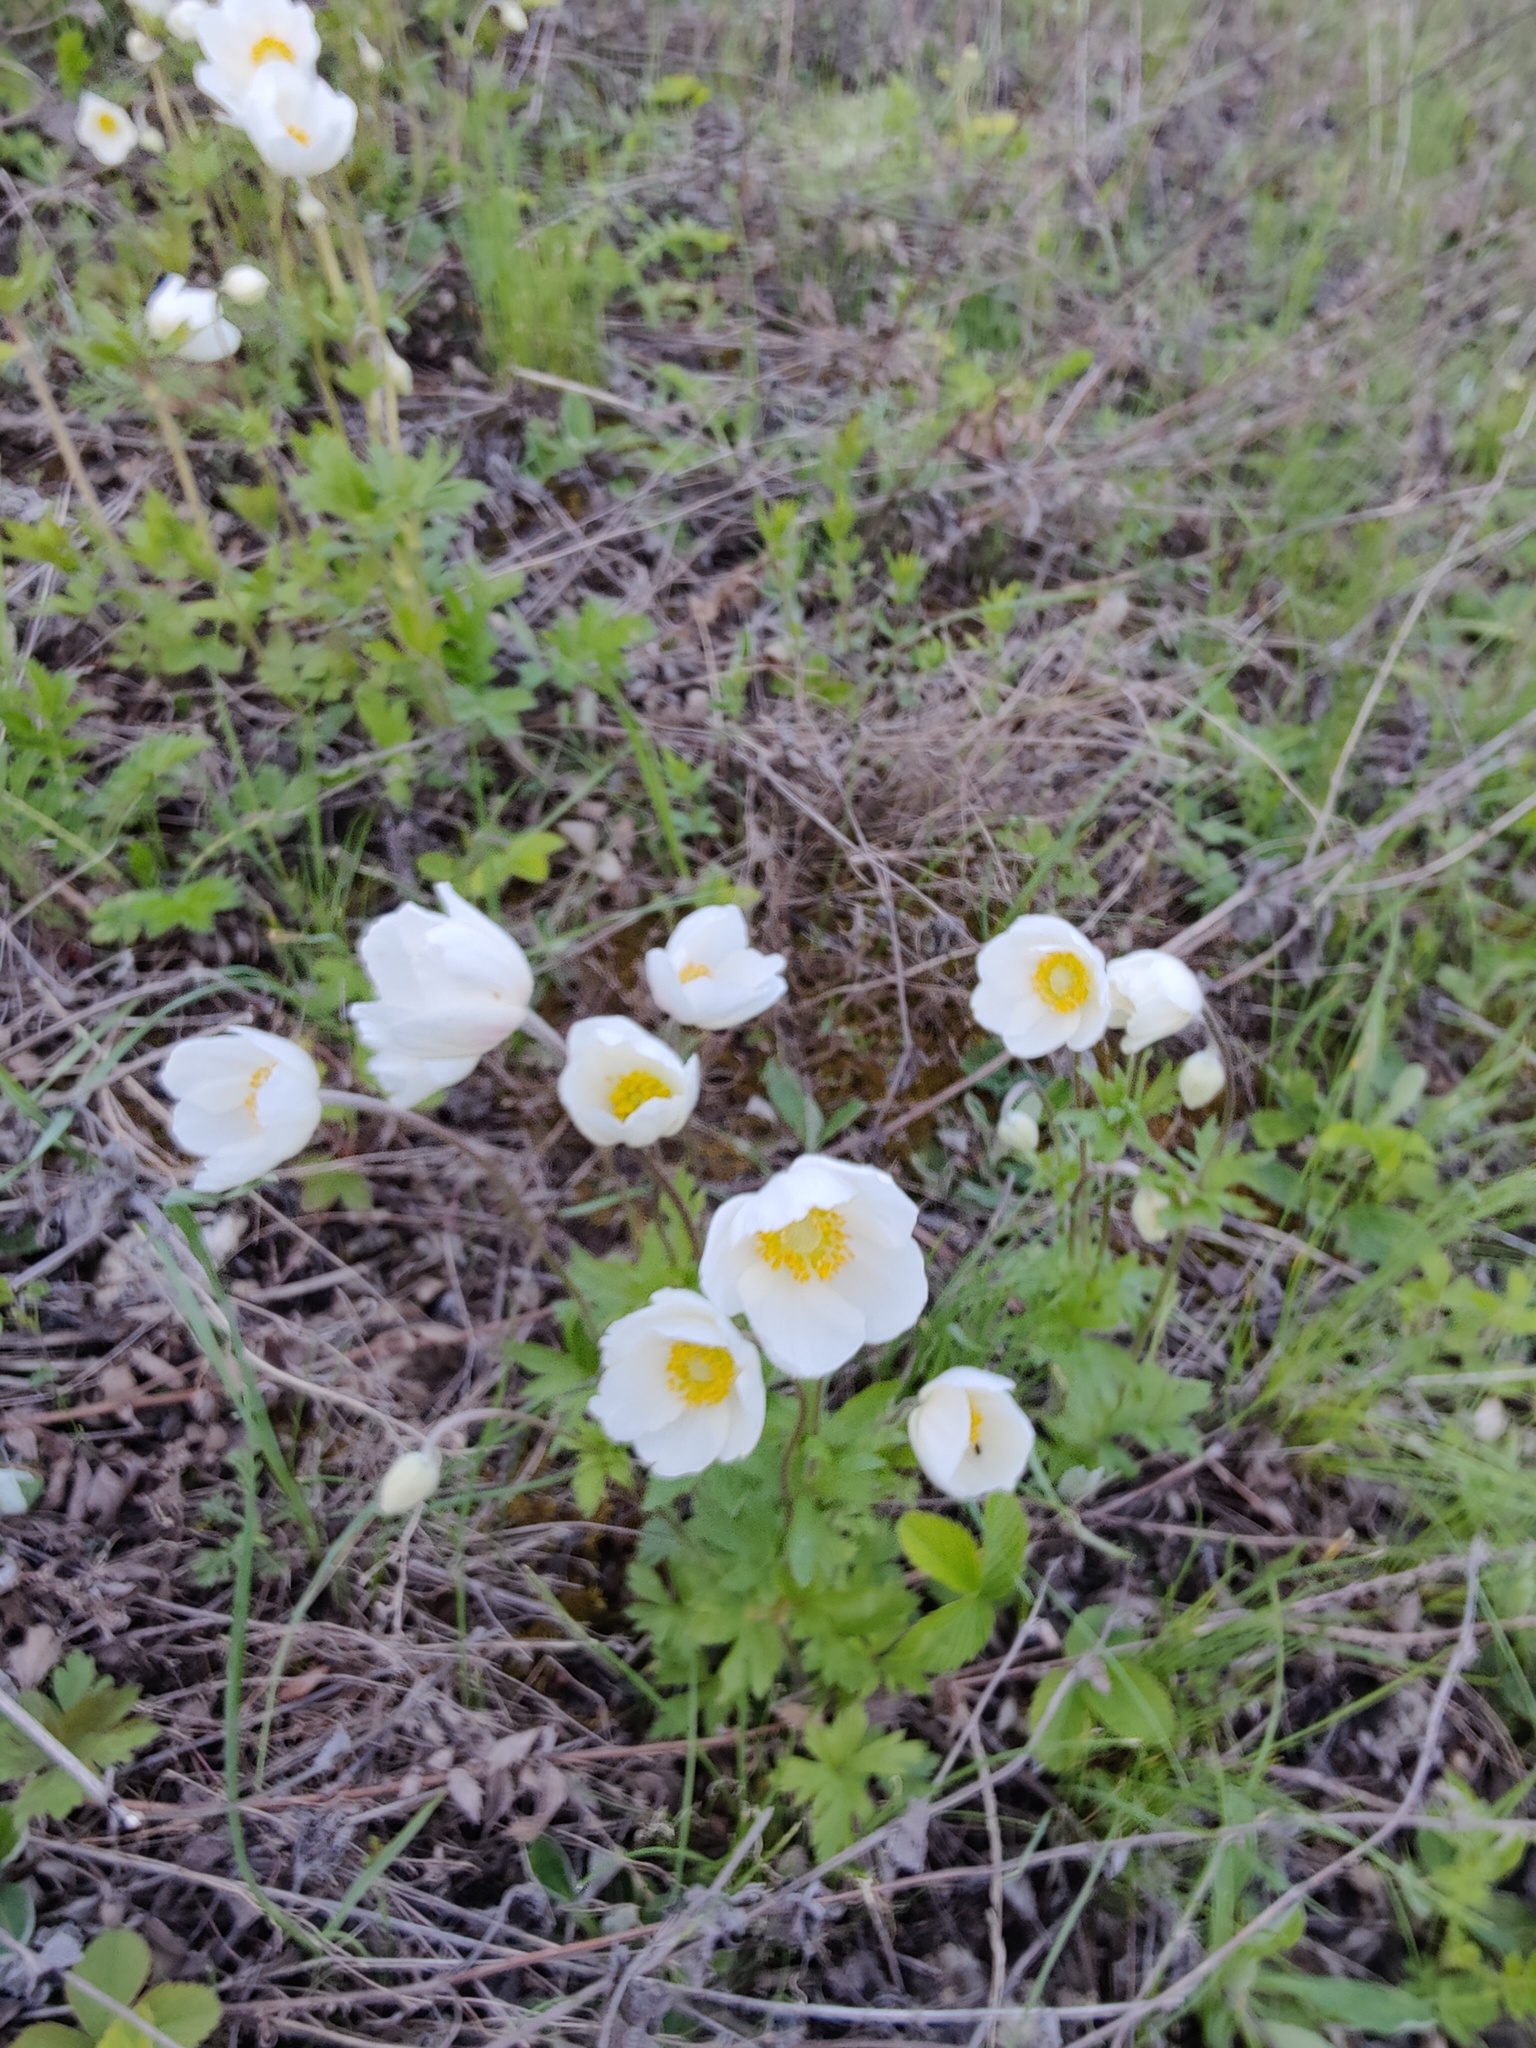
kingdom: Plantae
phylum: Tracheophyta
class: Magnoliopsida
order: Ranunculales
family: Ranunculaceae
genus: Anemone
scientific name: Anemone sylvestris
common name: Snowdrop anemone
